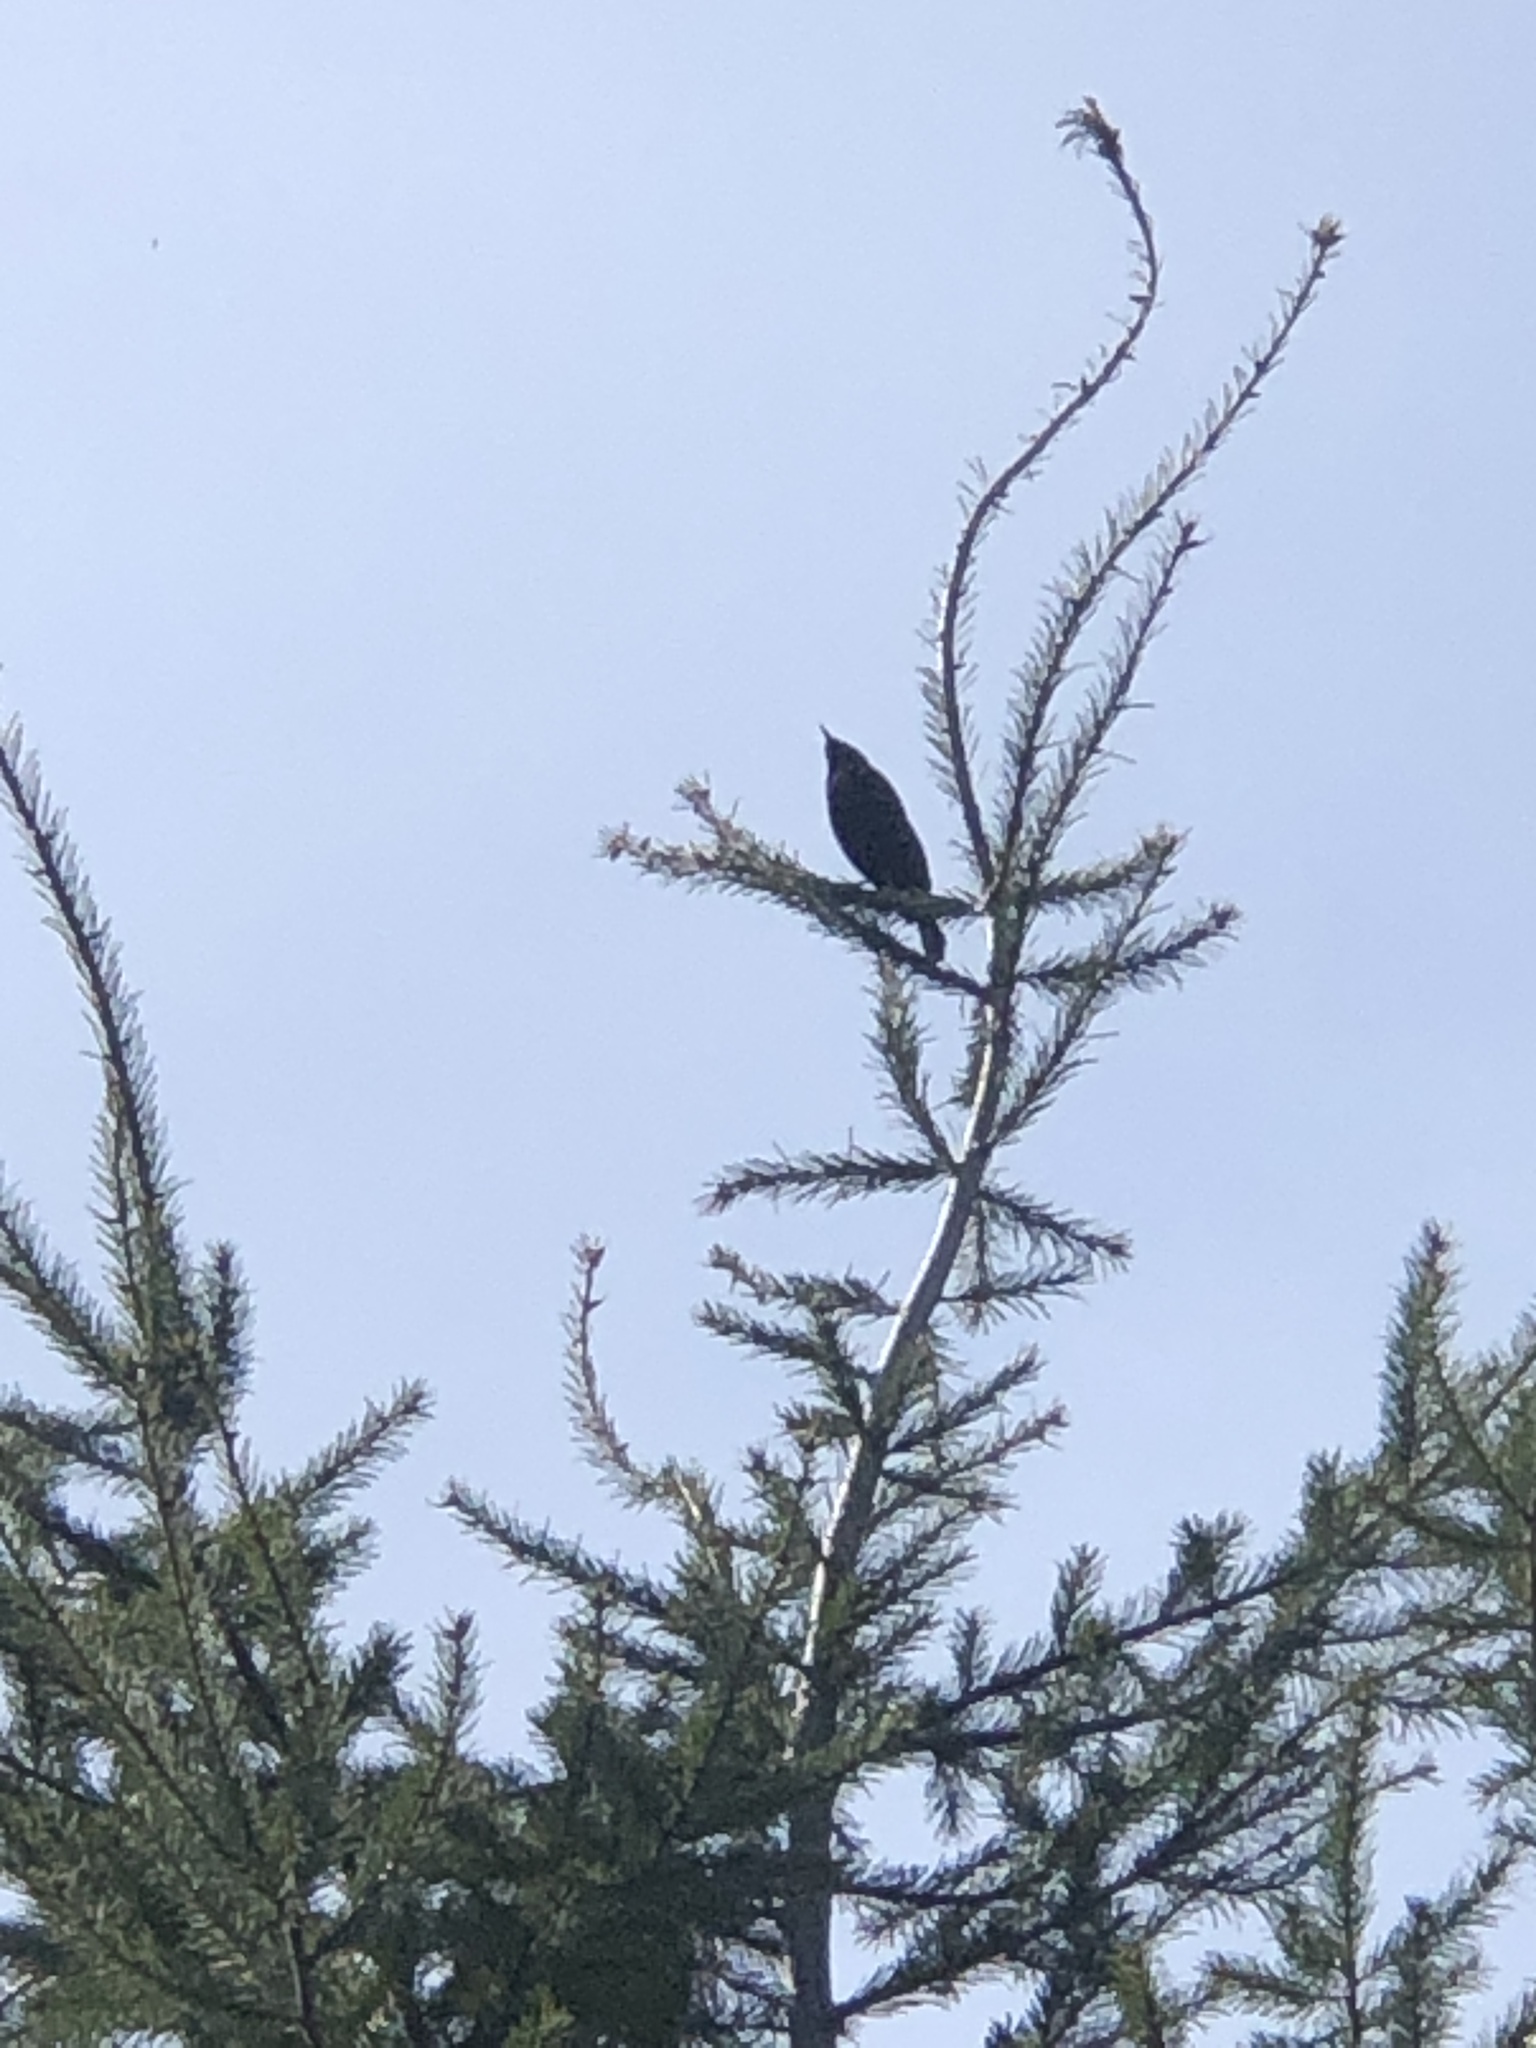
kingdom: Animalia
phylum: Chordata
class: Aves
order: Passeriformes
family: Sturnidae
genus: Sturnus
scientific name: Sturnus vulgaris
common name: Common starling
